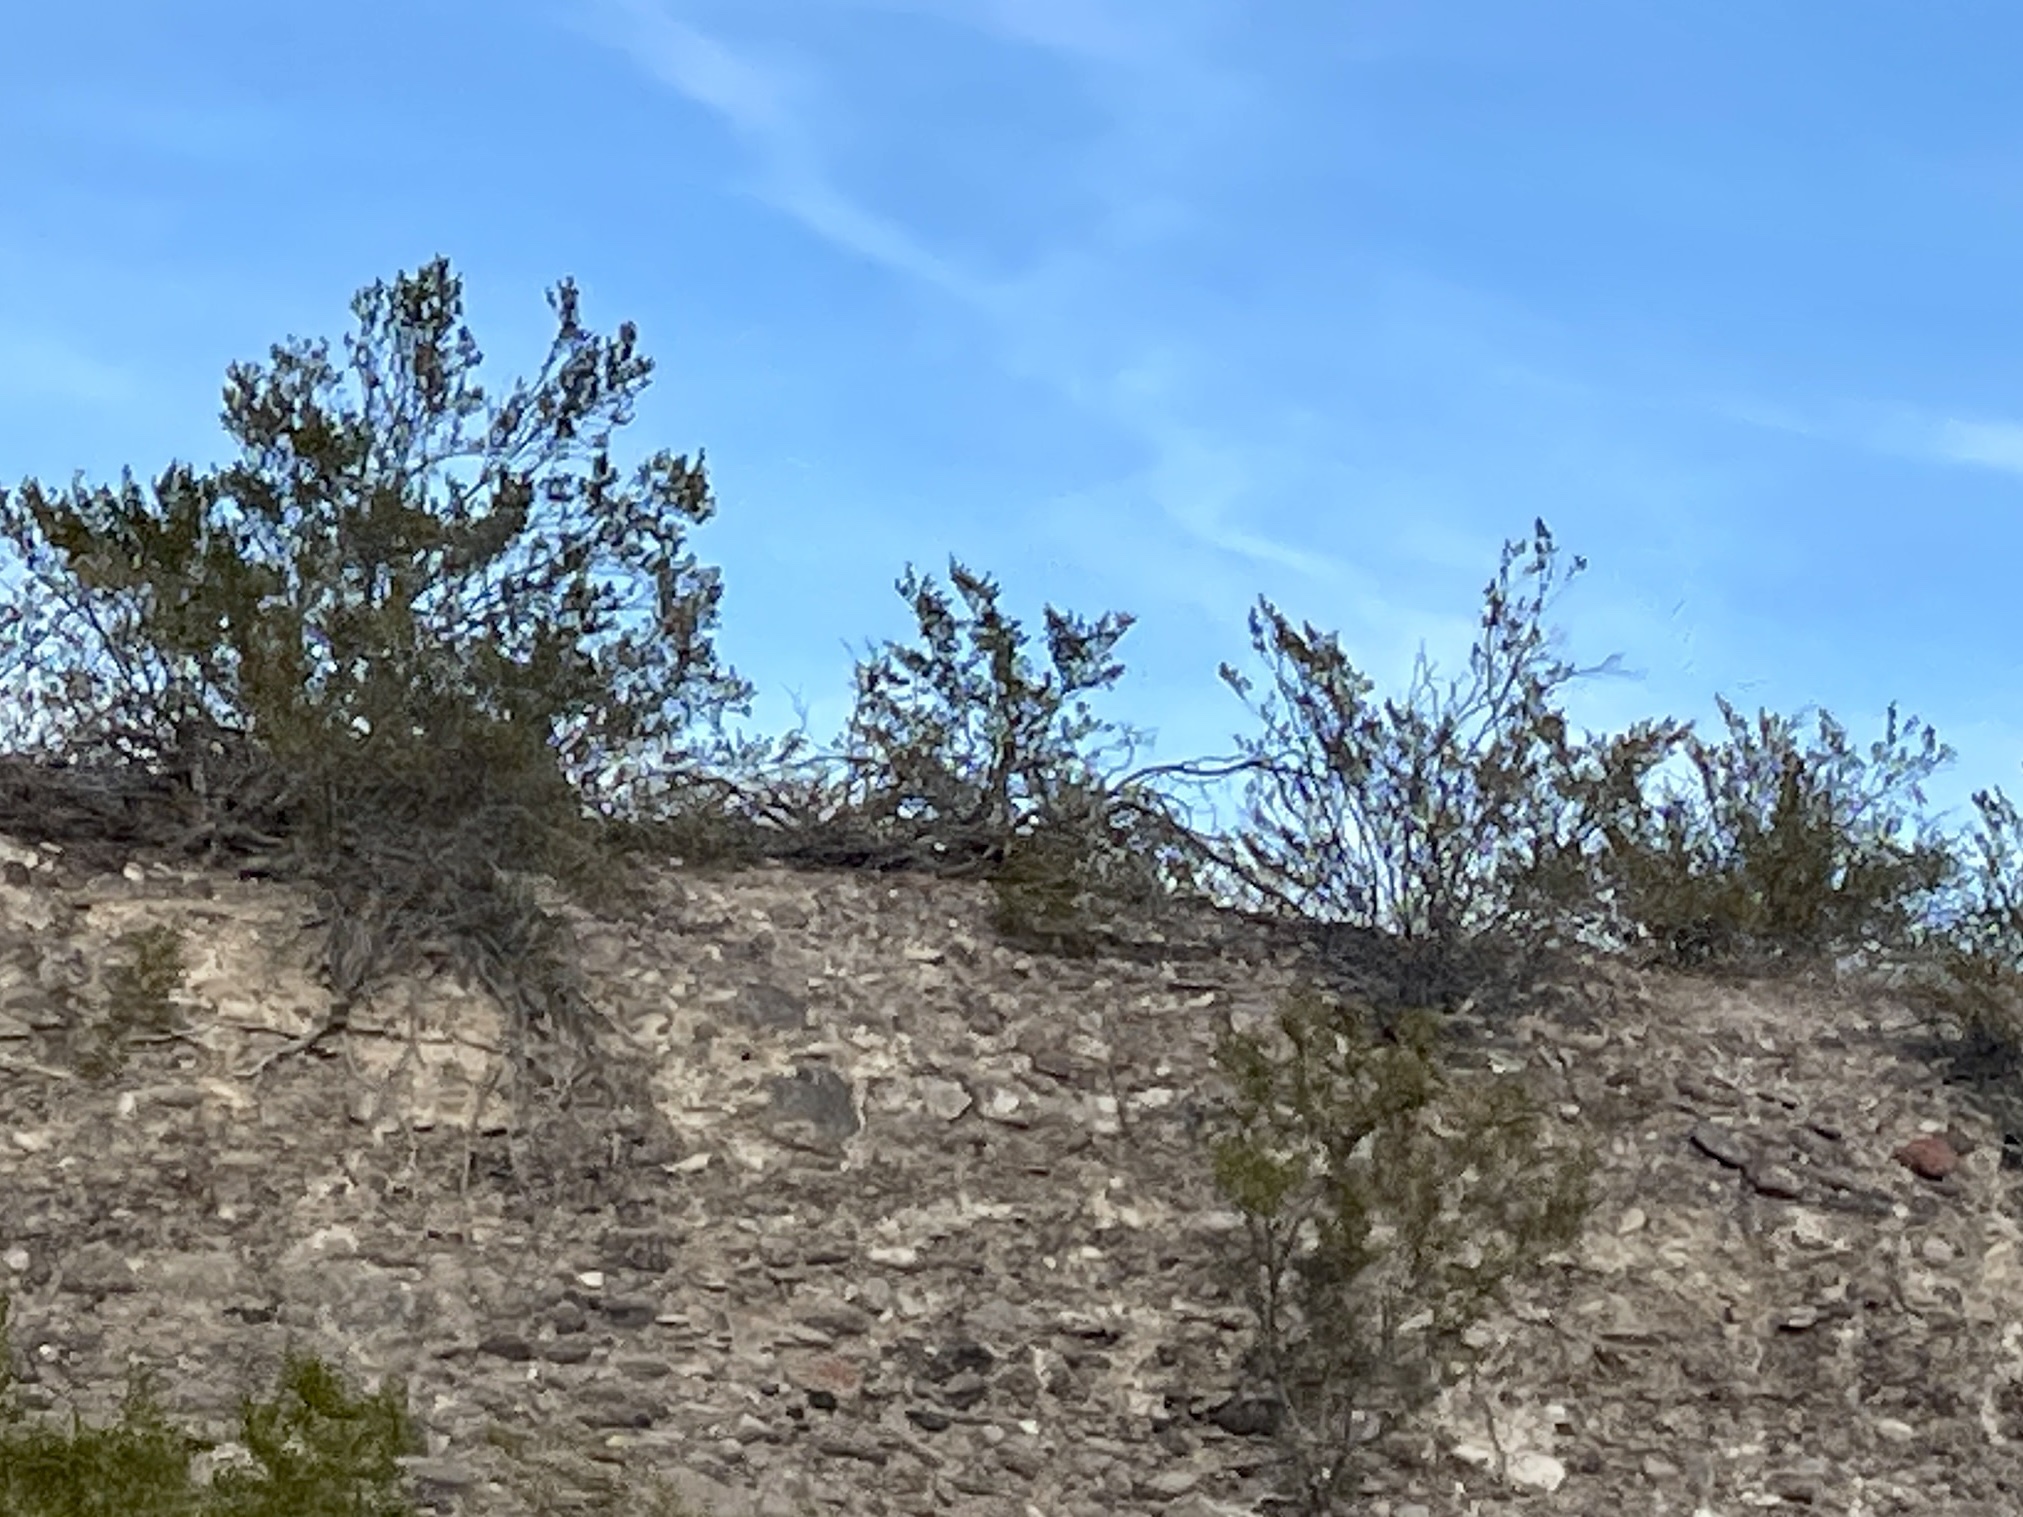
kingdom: Plantae
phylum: Tracheophyta
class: Magnoliopsida
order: Zygophyllales
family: Zygophyllaceae
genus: Larrea
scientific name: Larrea tridentata
